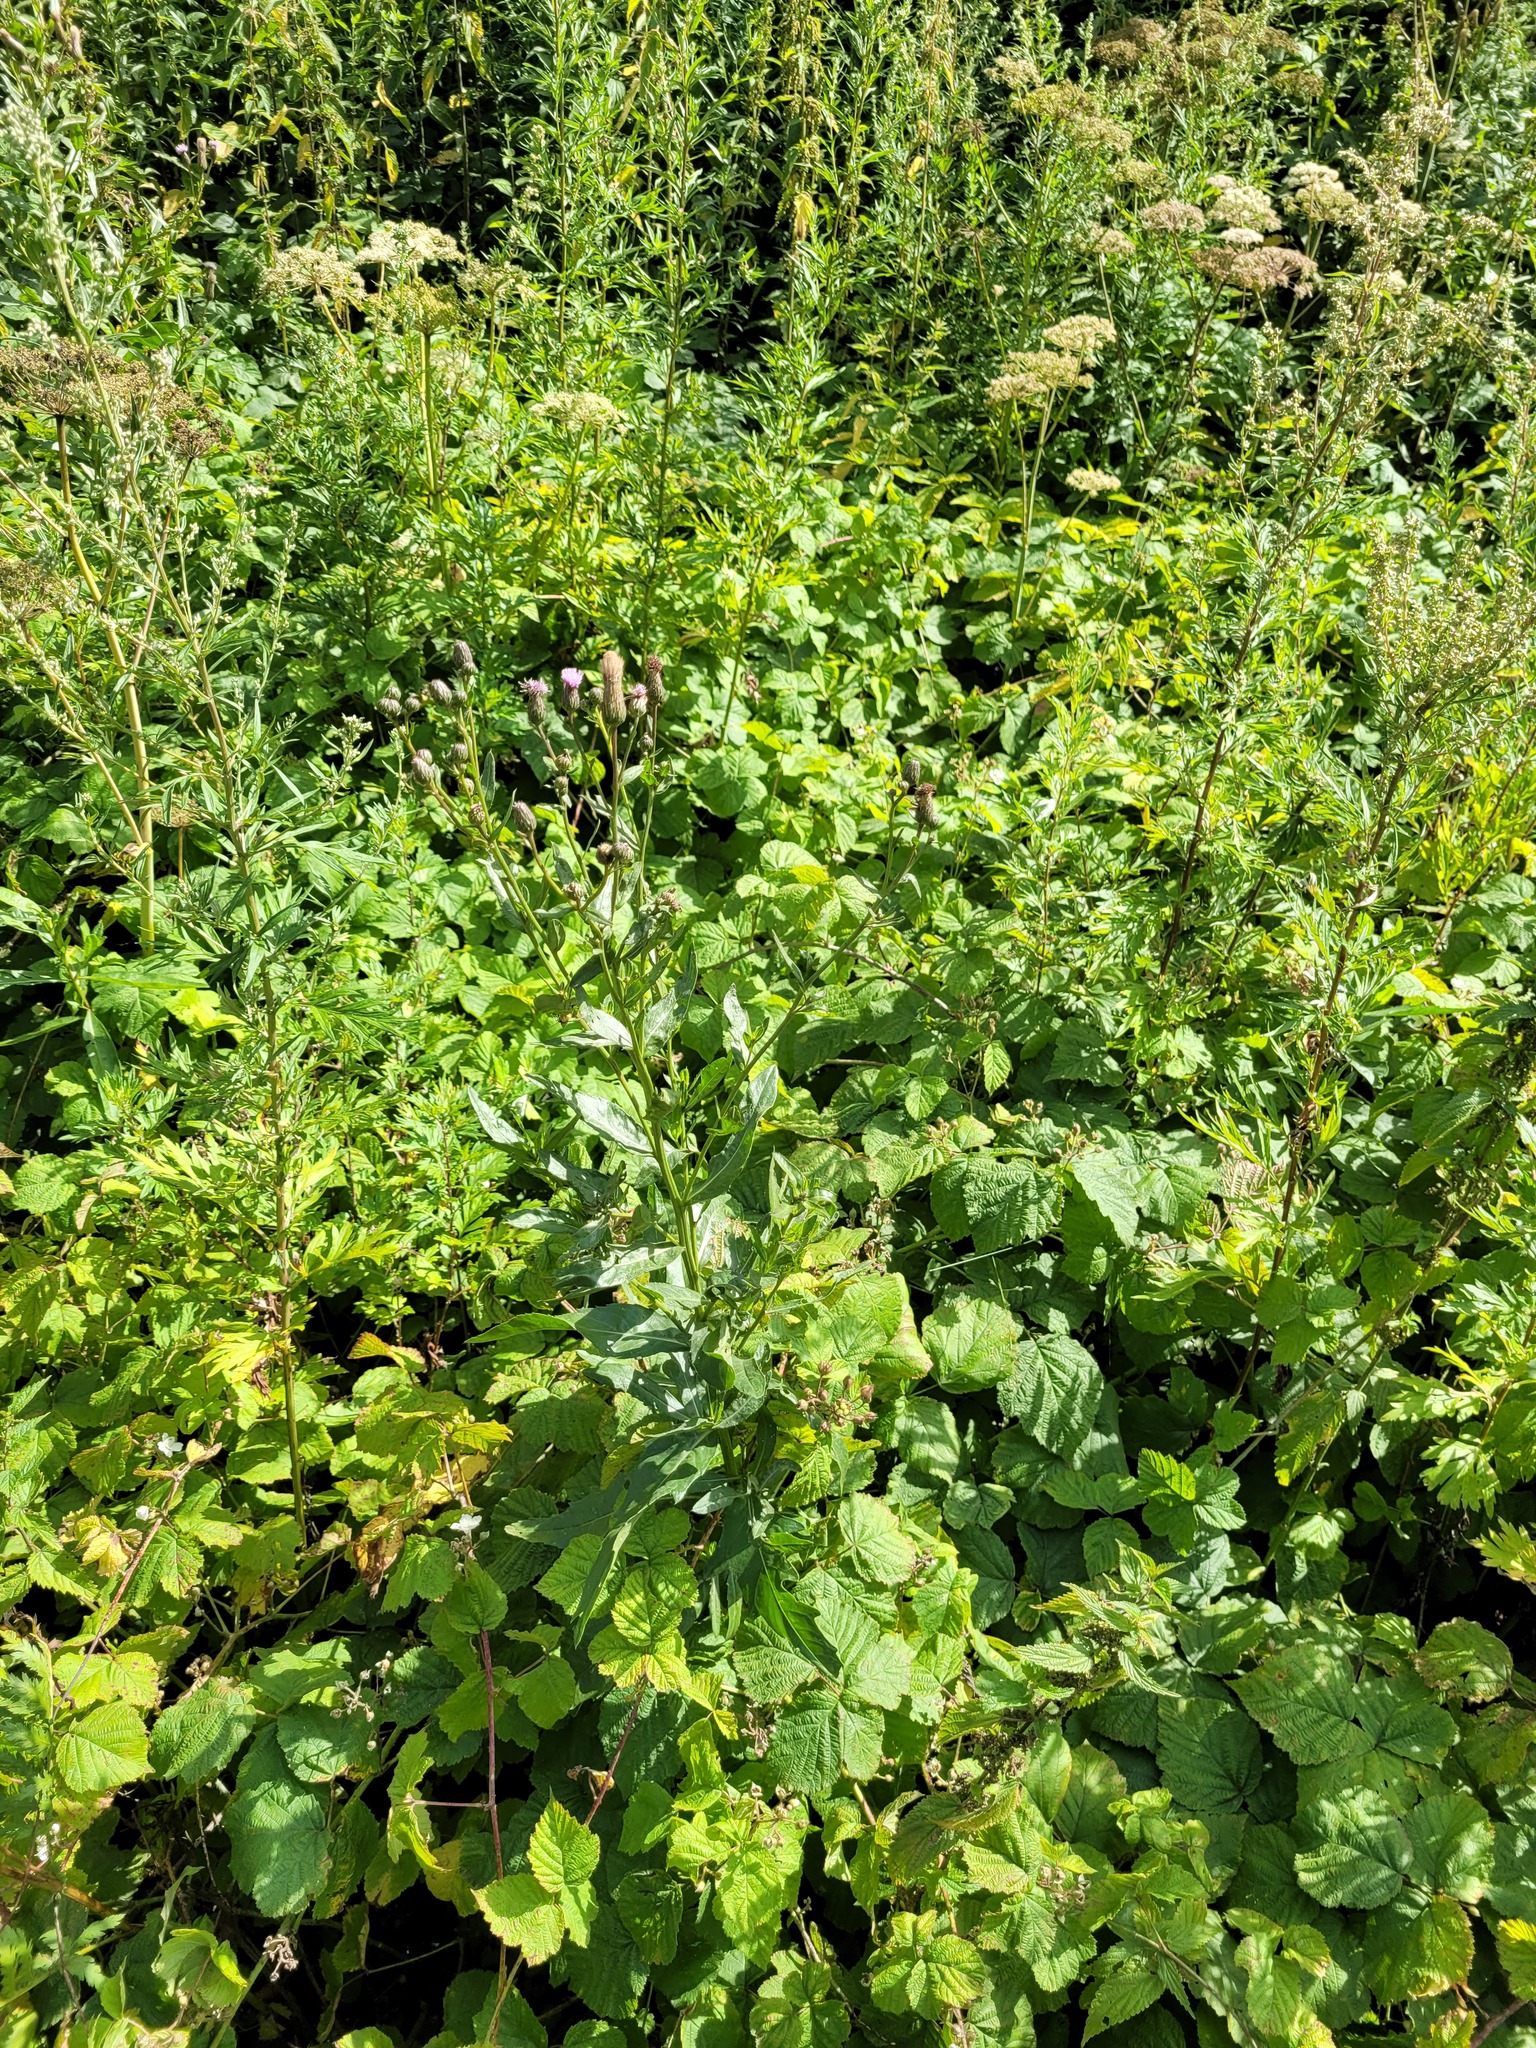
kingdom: Plantae
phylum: Tracheophyta
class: Magnoliopsida
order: Asterales
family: Asteraceae
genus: Cirsium
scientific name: Cirsium arvense
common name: Creeping thistle
